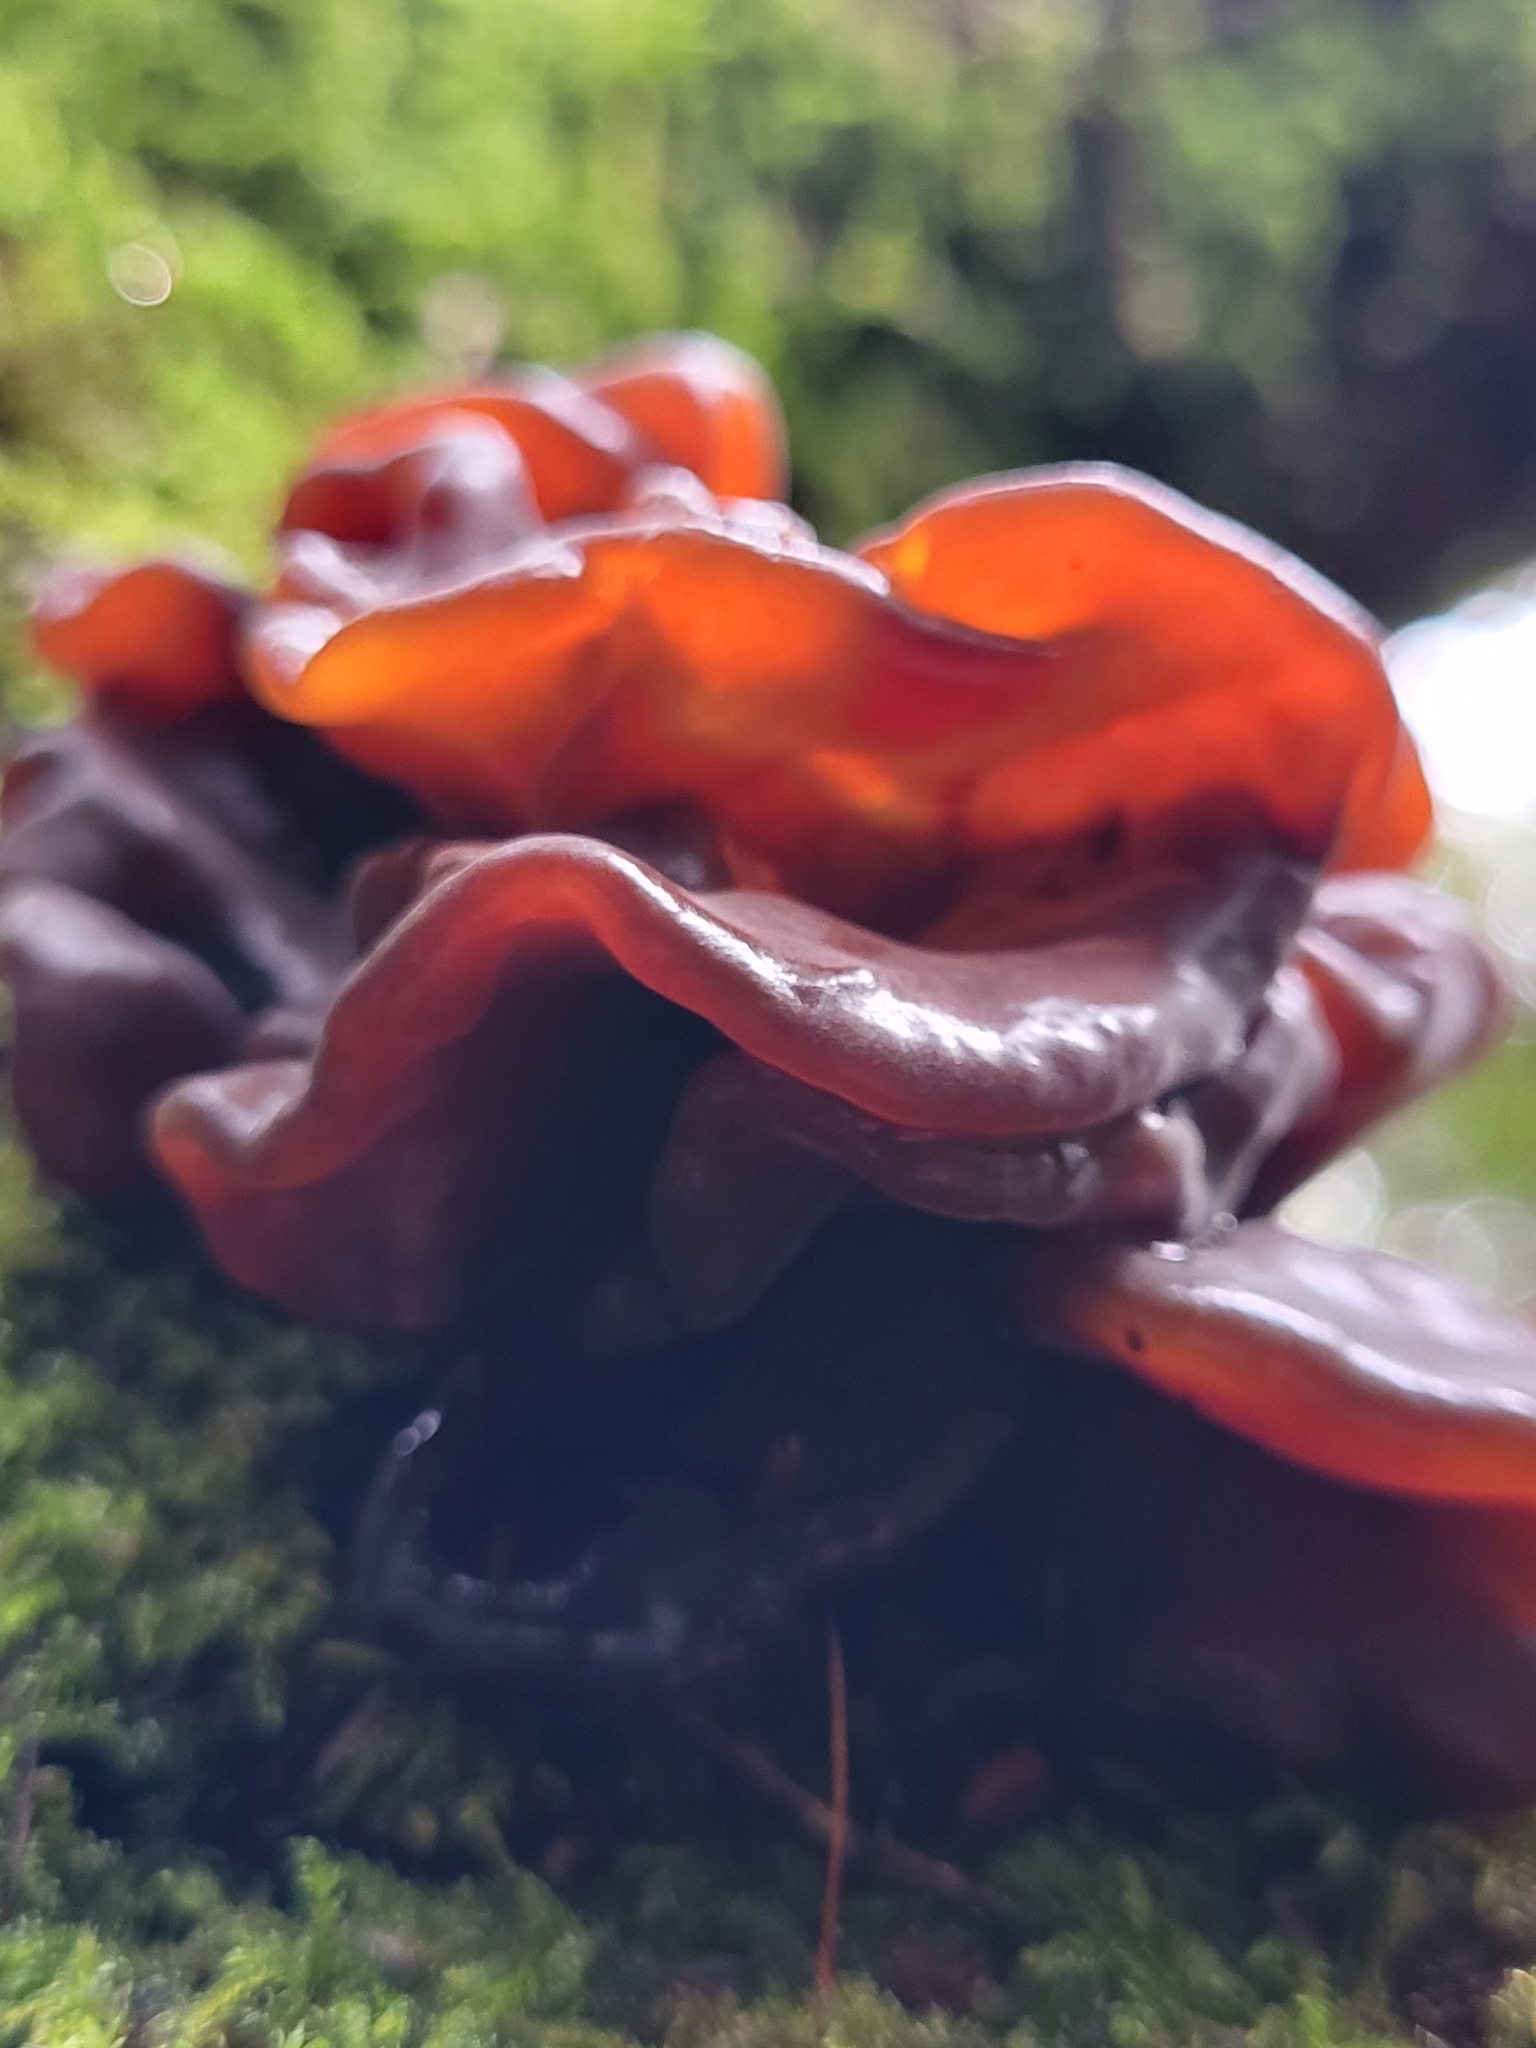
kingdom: Fungi
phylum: Basidiomycota
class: Agaricomycetes
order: Auriculariales
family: Auriculariaceae
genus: Auricularia
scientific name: Auricularia auricula-judae
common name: Jelly ear
